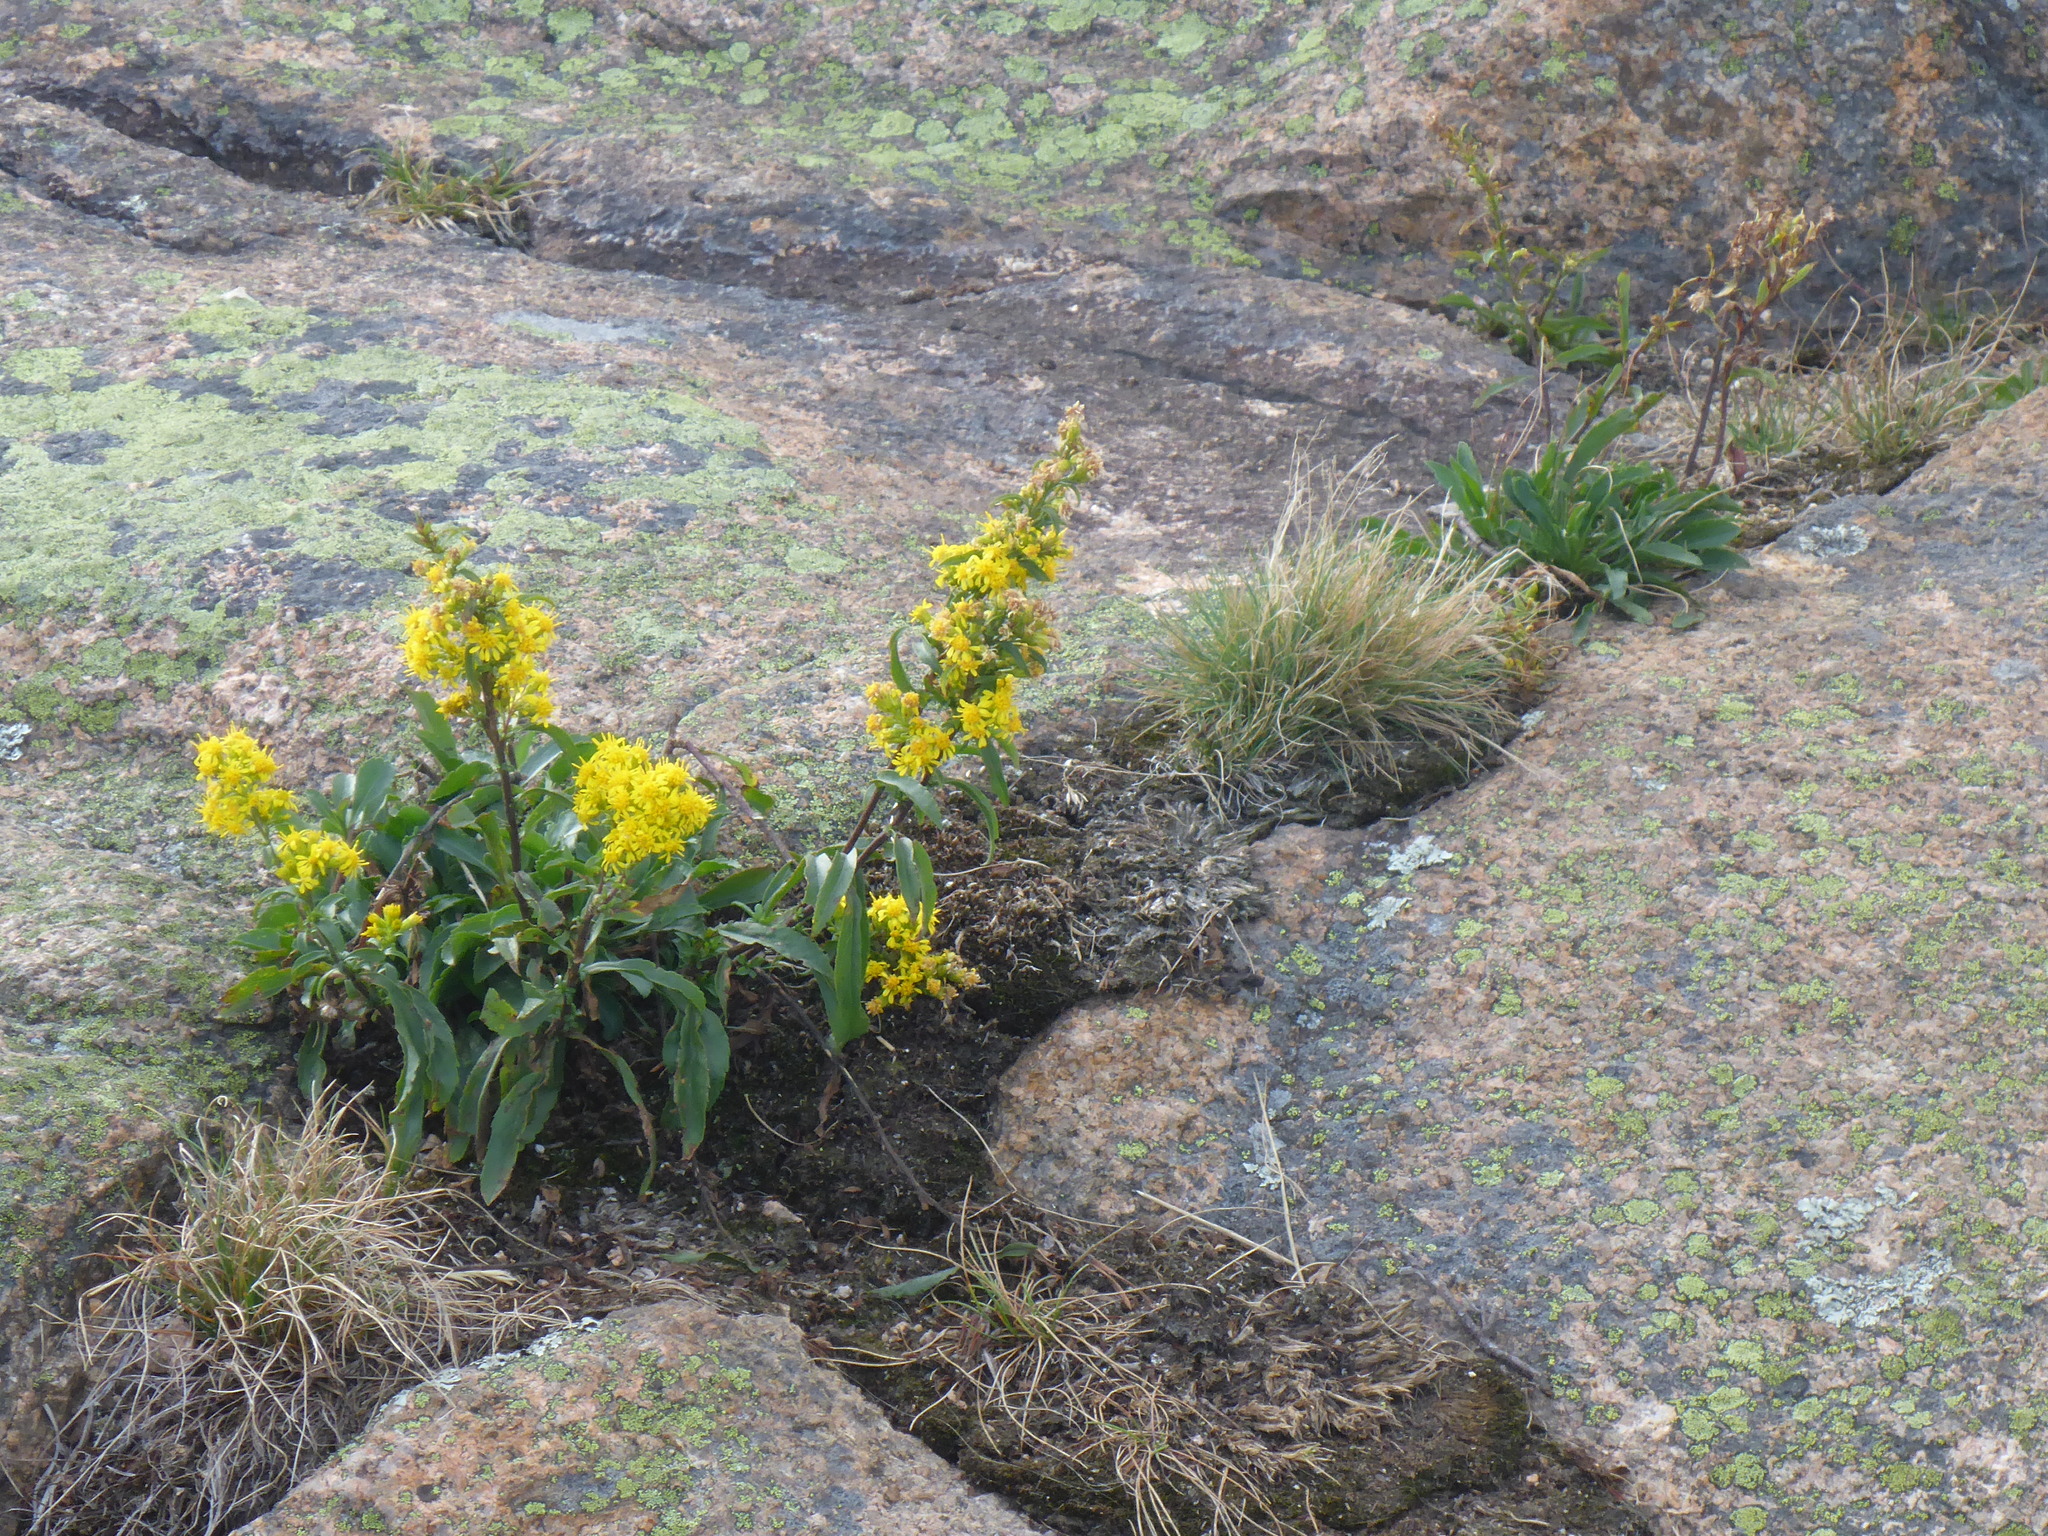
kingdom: Plantae
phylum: Tracheophyta
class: Magnoliopsida
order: Asterales
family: Asteraceae
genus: Solidago
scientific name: Solidago sempervirens
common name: Salt-marsh goldenrod
